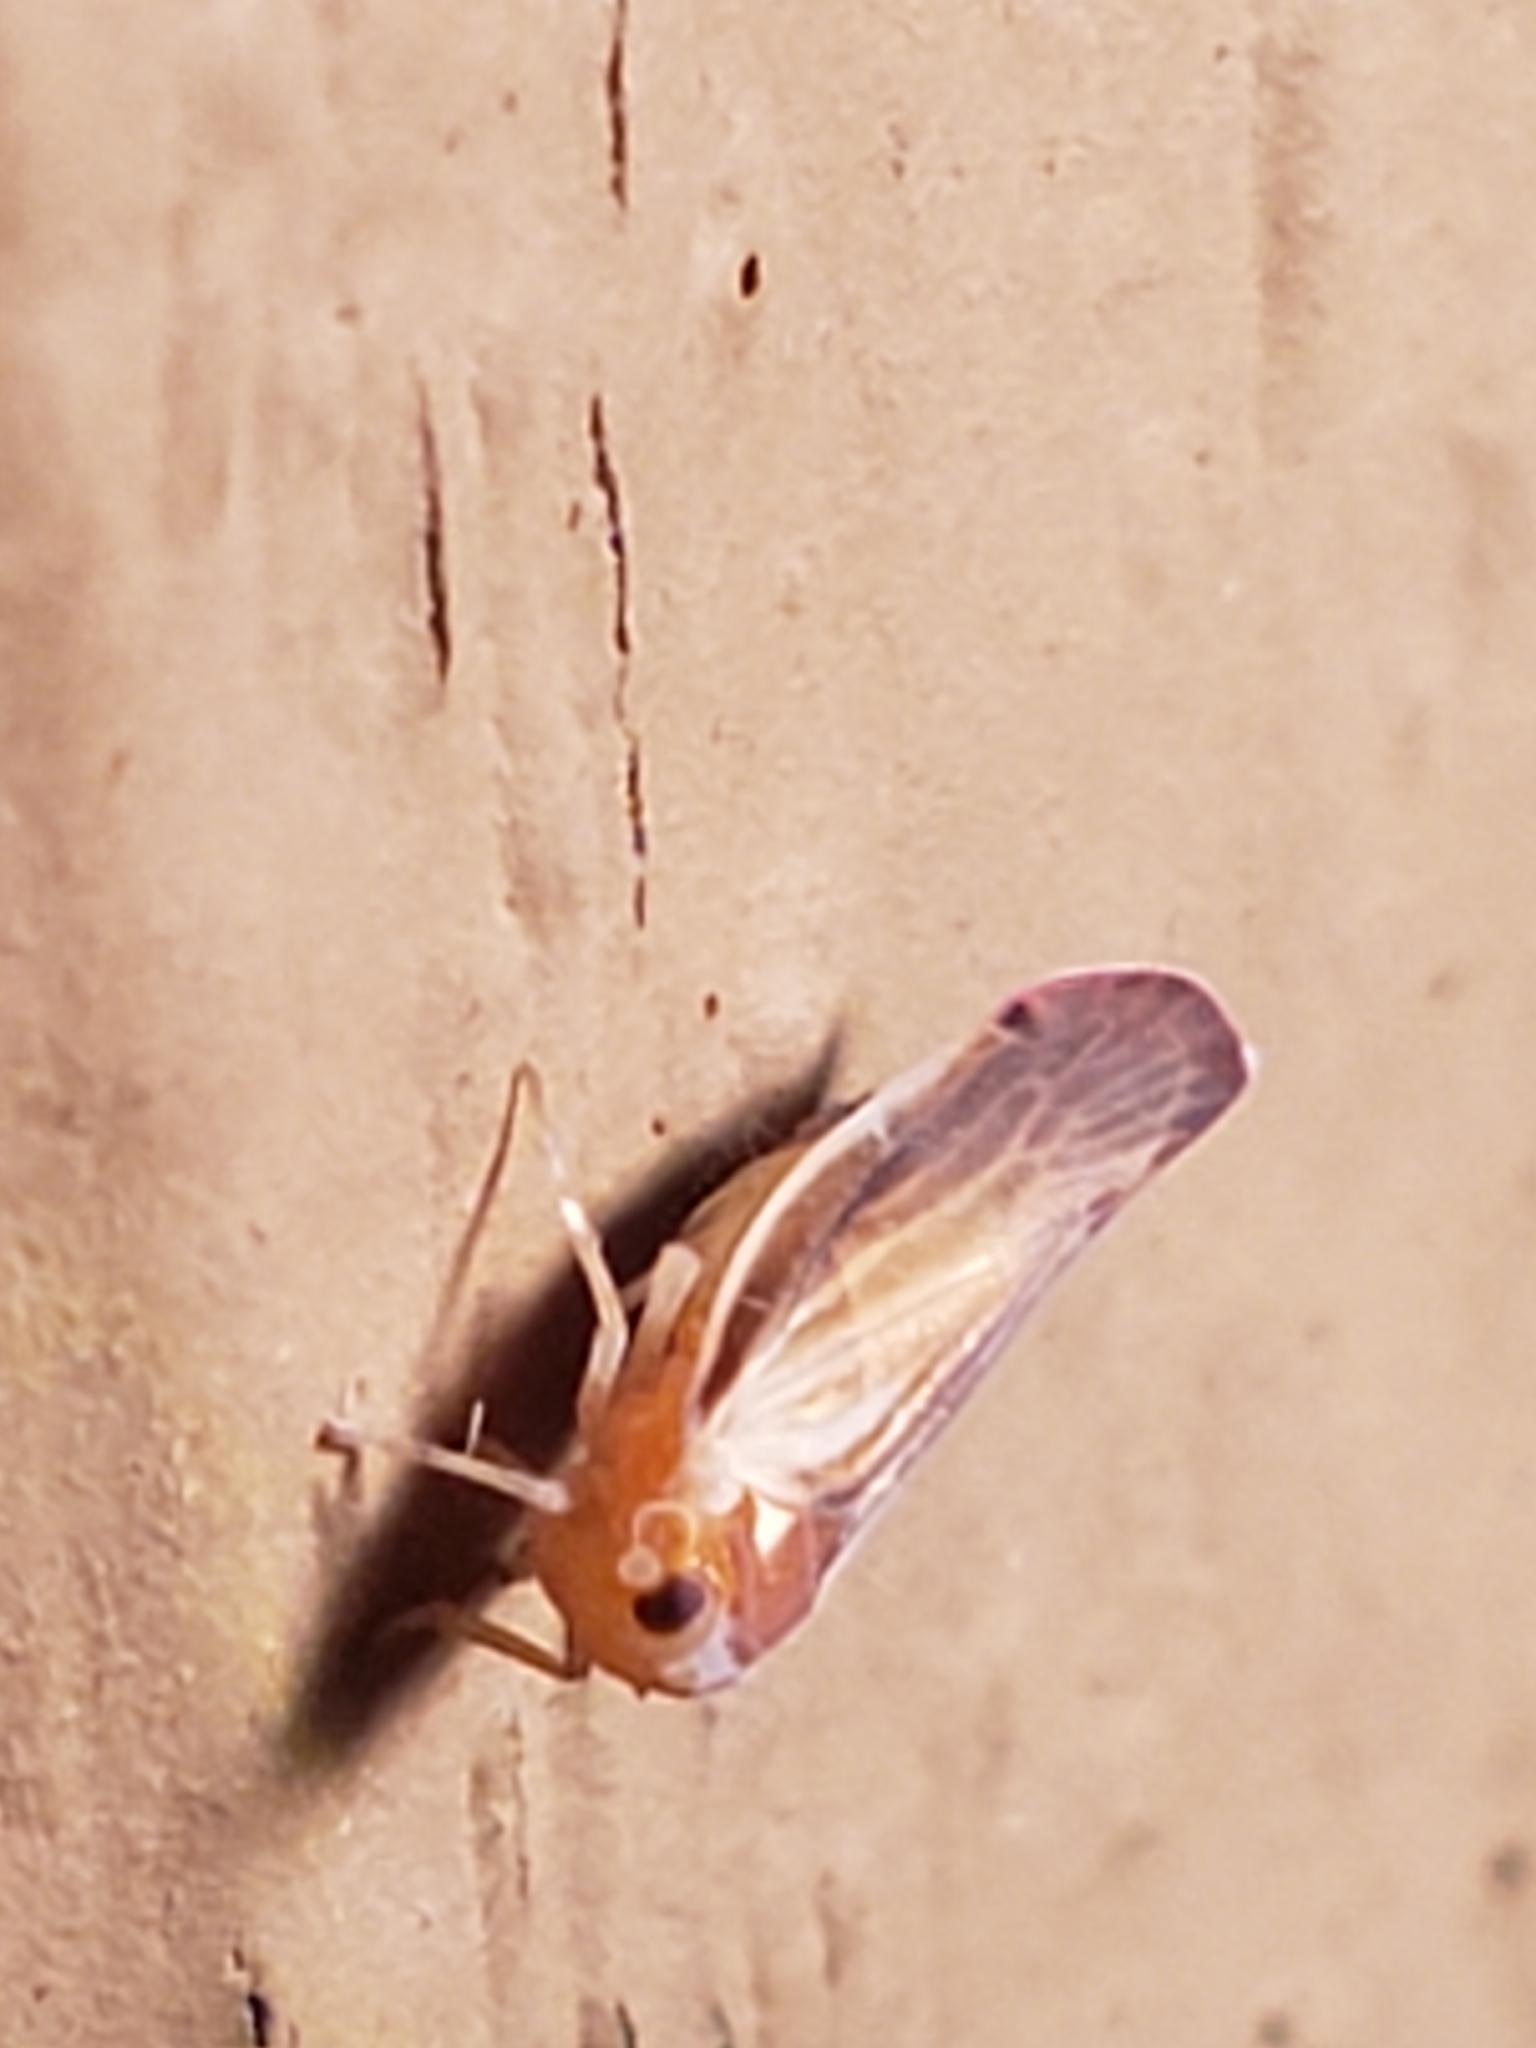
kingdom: Animalia
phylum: Arthropoda
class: Insecta
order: Hemiptera
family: Derbidae
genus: Omolicna
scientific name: Omolicna uhleri
